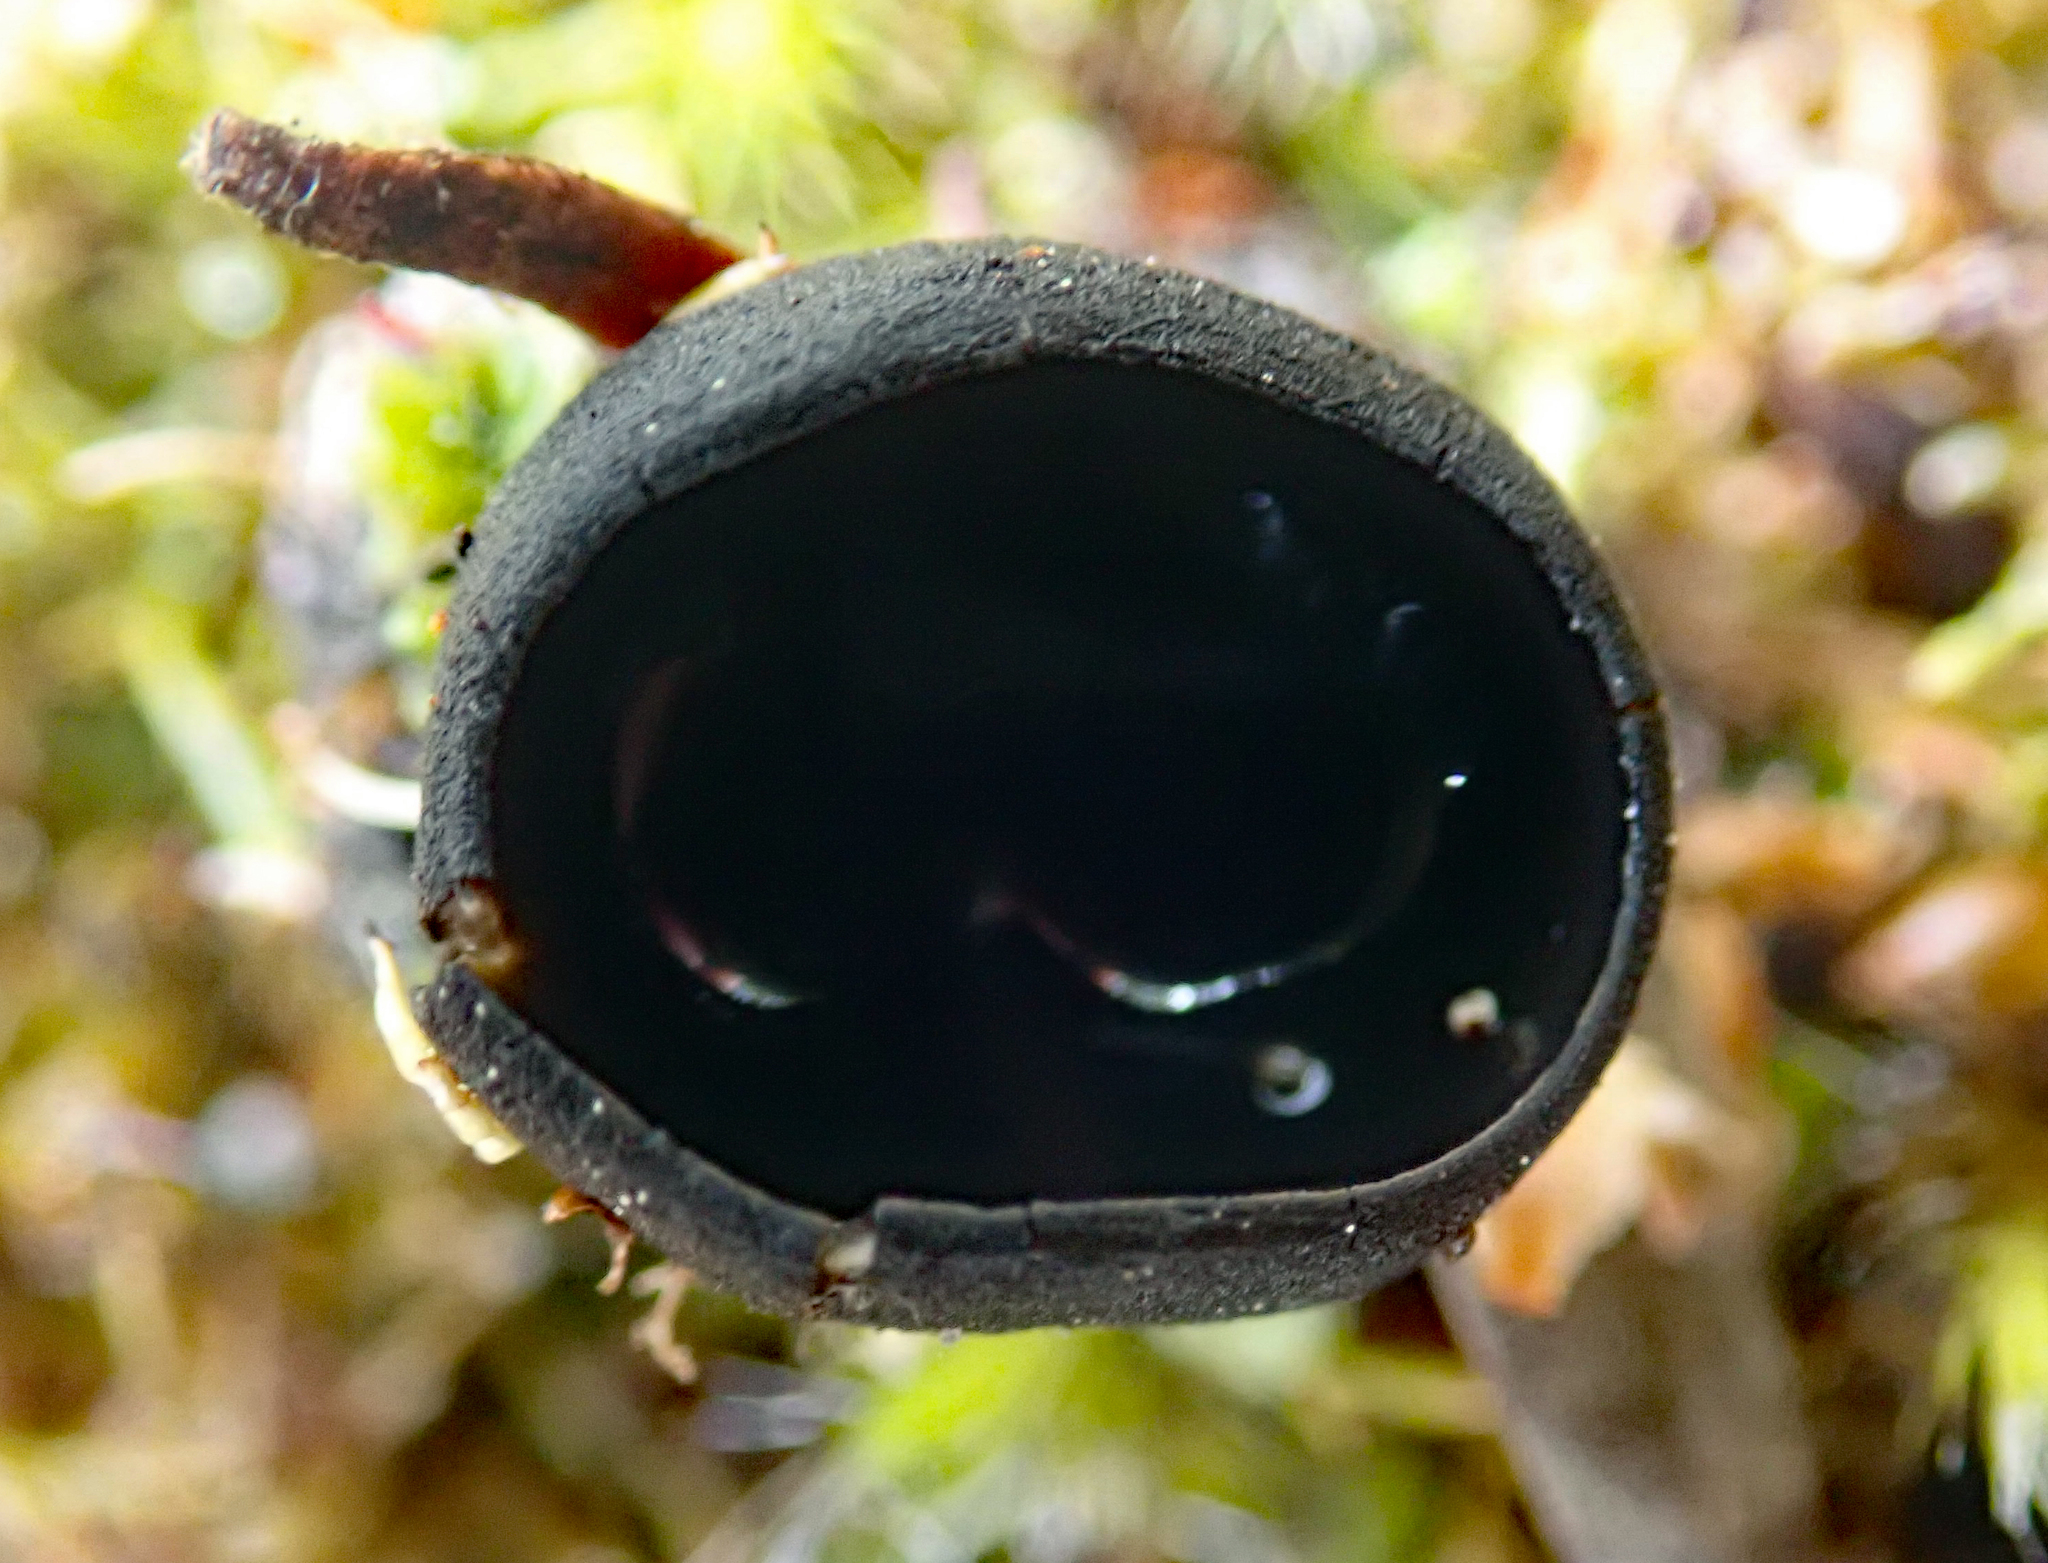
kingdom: Fungi
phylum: Ascomycota
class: Pezizomycetes
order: Pezizales
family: Sarcosomataceae
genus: Pseudoplectania
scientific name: Pseudoplectania affinis
